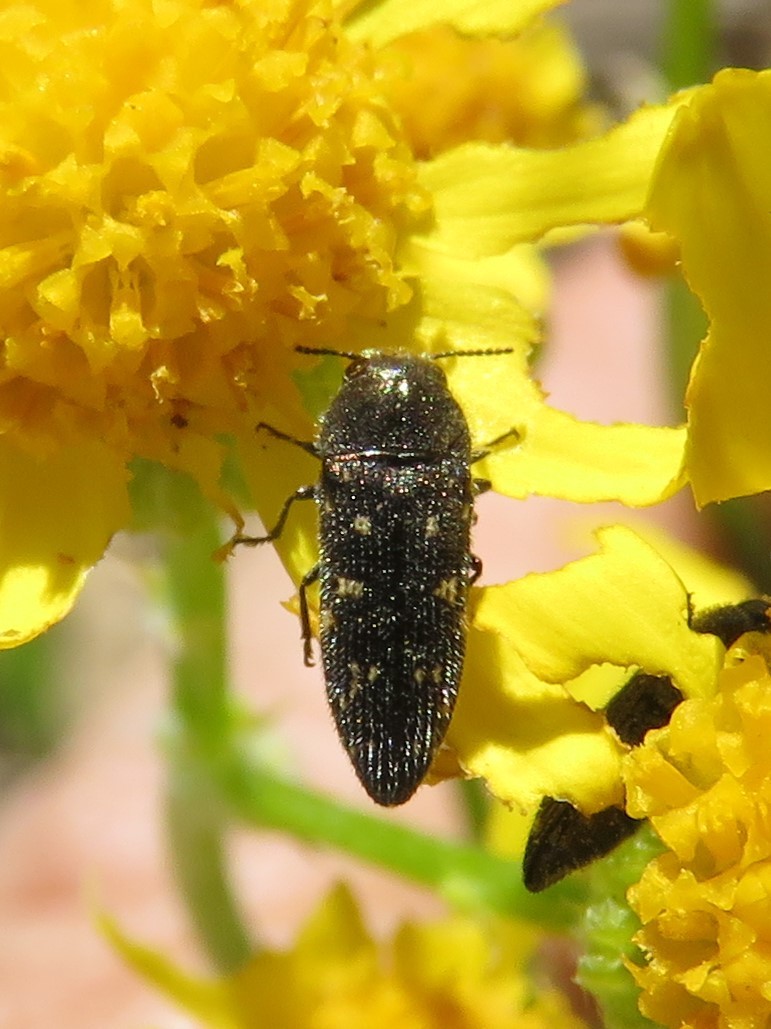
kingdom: Animalia
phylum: Arthropoda
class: Insecta
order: Coleoptera
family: Buprestidae
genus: Acmaeodera
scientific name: Acmaeodera tubulus
